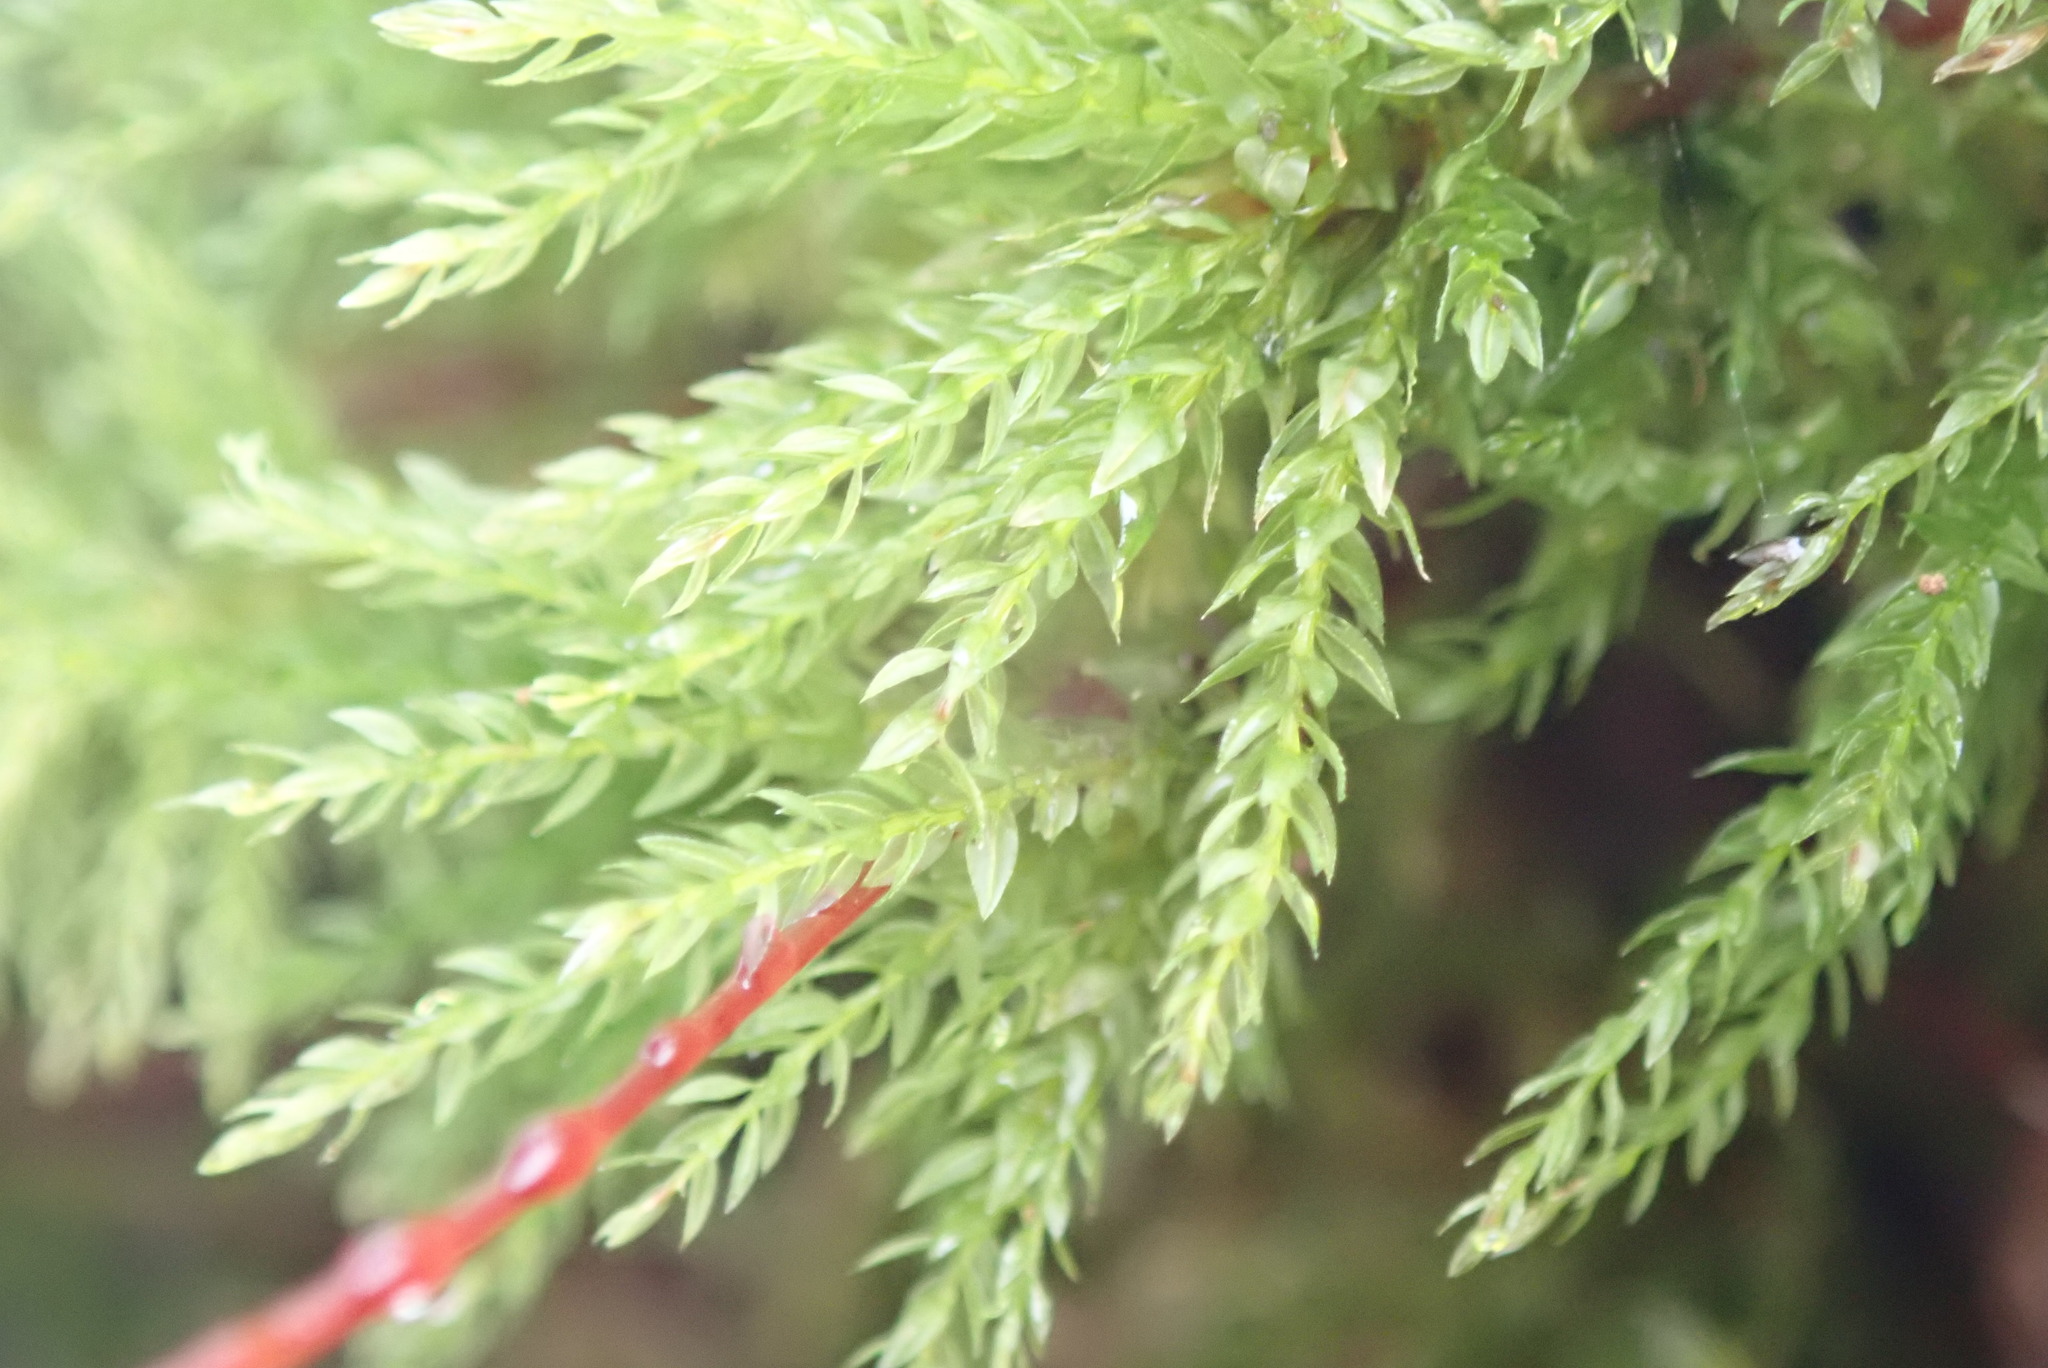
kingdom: Plantae
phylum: Bryophyta
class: Bryopsida
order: Bryales
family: Mniaceae
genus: Leucolepis
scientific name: Leucolepis acanthoneura
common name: Leucolepis umbrella moss
